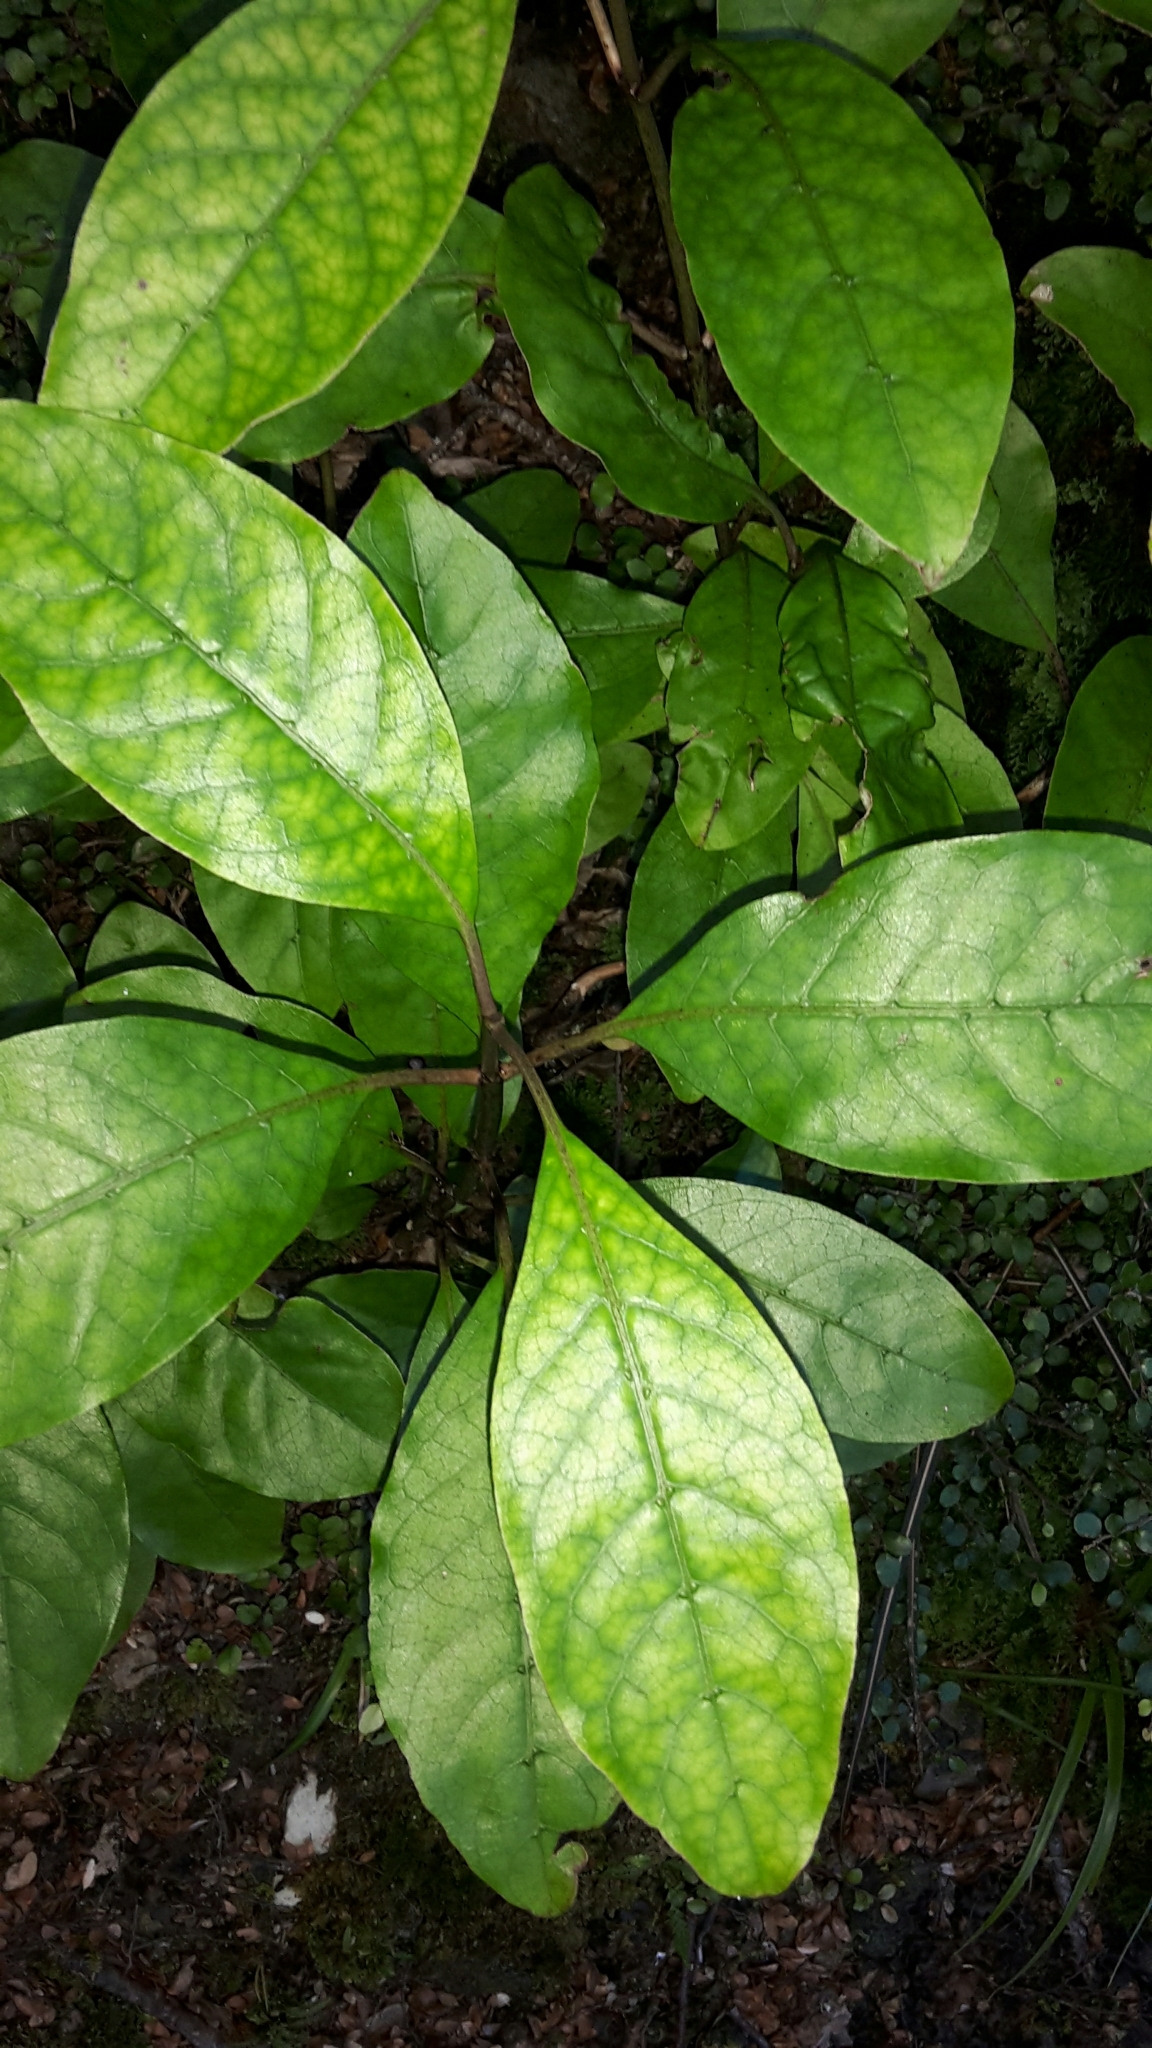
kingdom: Plantae
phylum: Tracheophyta
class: Magnoliopsida
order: Gentianales
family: Rubiaceae
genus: Coprosma
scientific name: Coprosma autumnalis
